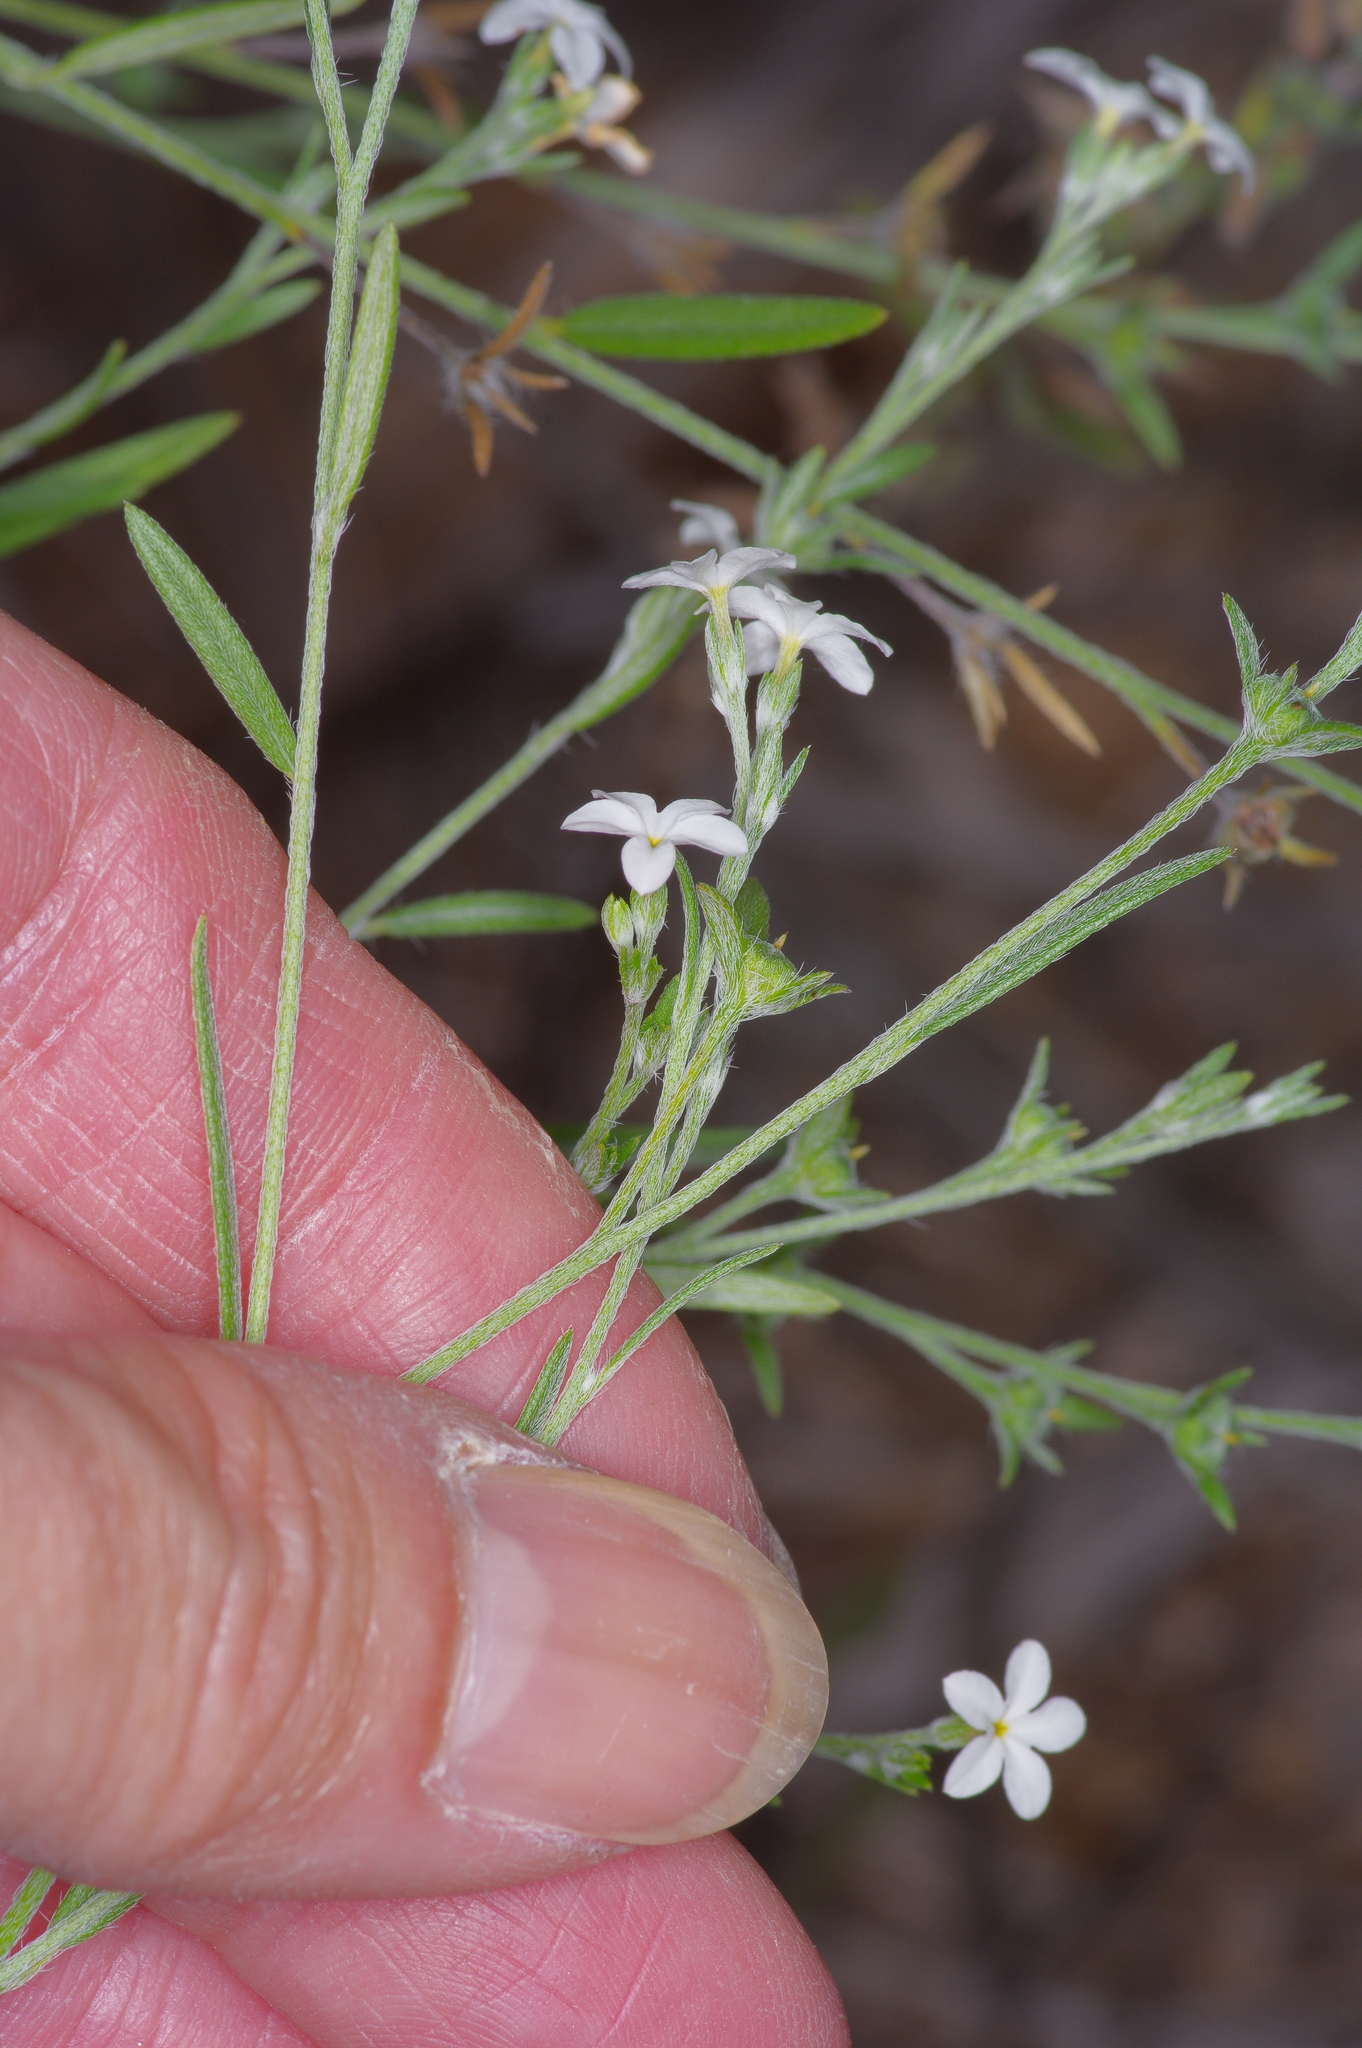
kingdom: Plantae
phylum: Tracheophyta
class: Magnoliopsida
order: Boraginales
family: Heliotropiaceae
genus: Euploca
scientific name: Euploca tenella
